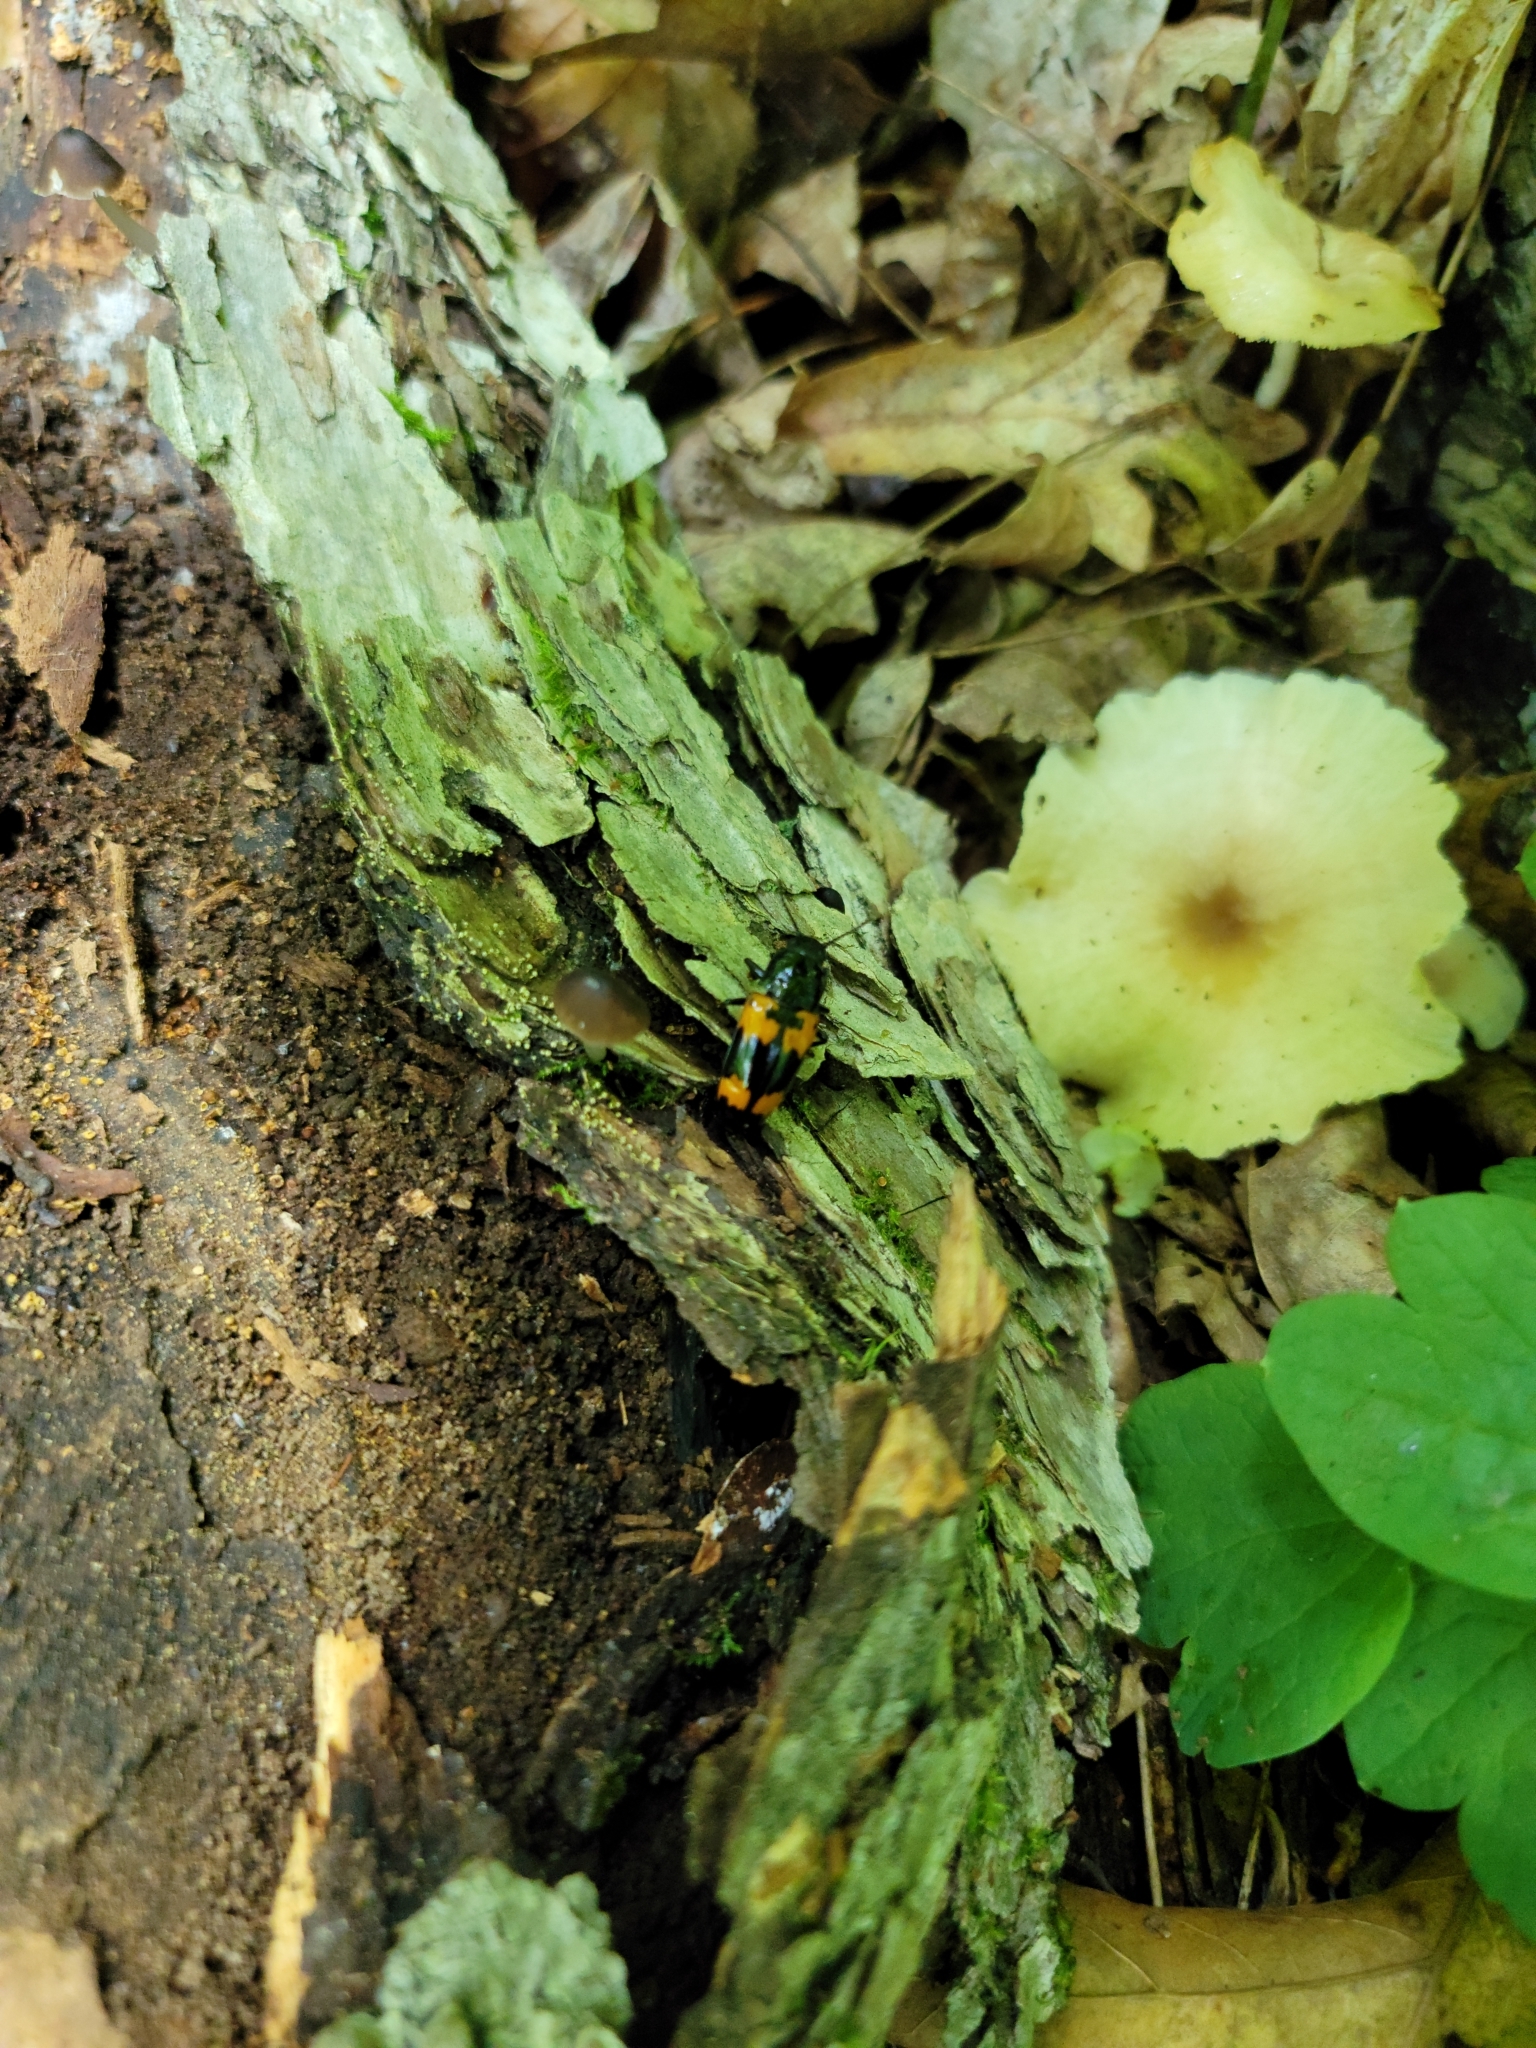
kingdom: Animalia
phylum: Arthropoda
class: Insecta
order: Coleoptera
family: Erotylidae
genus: Megalodacne
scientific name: Megalodacne heros
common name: Pleasing fungus beetle
